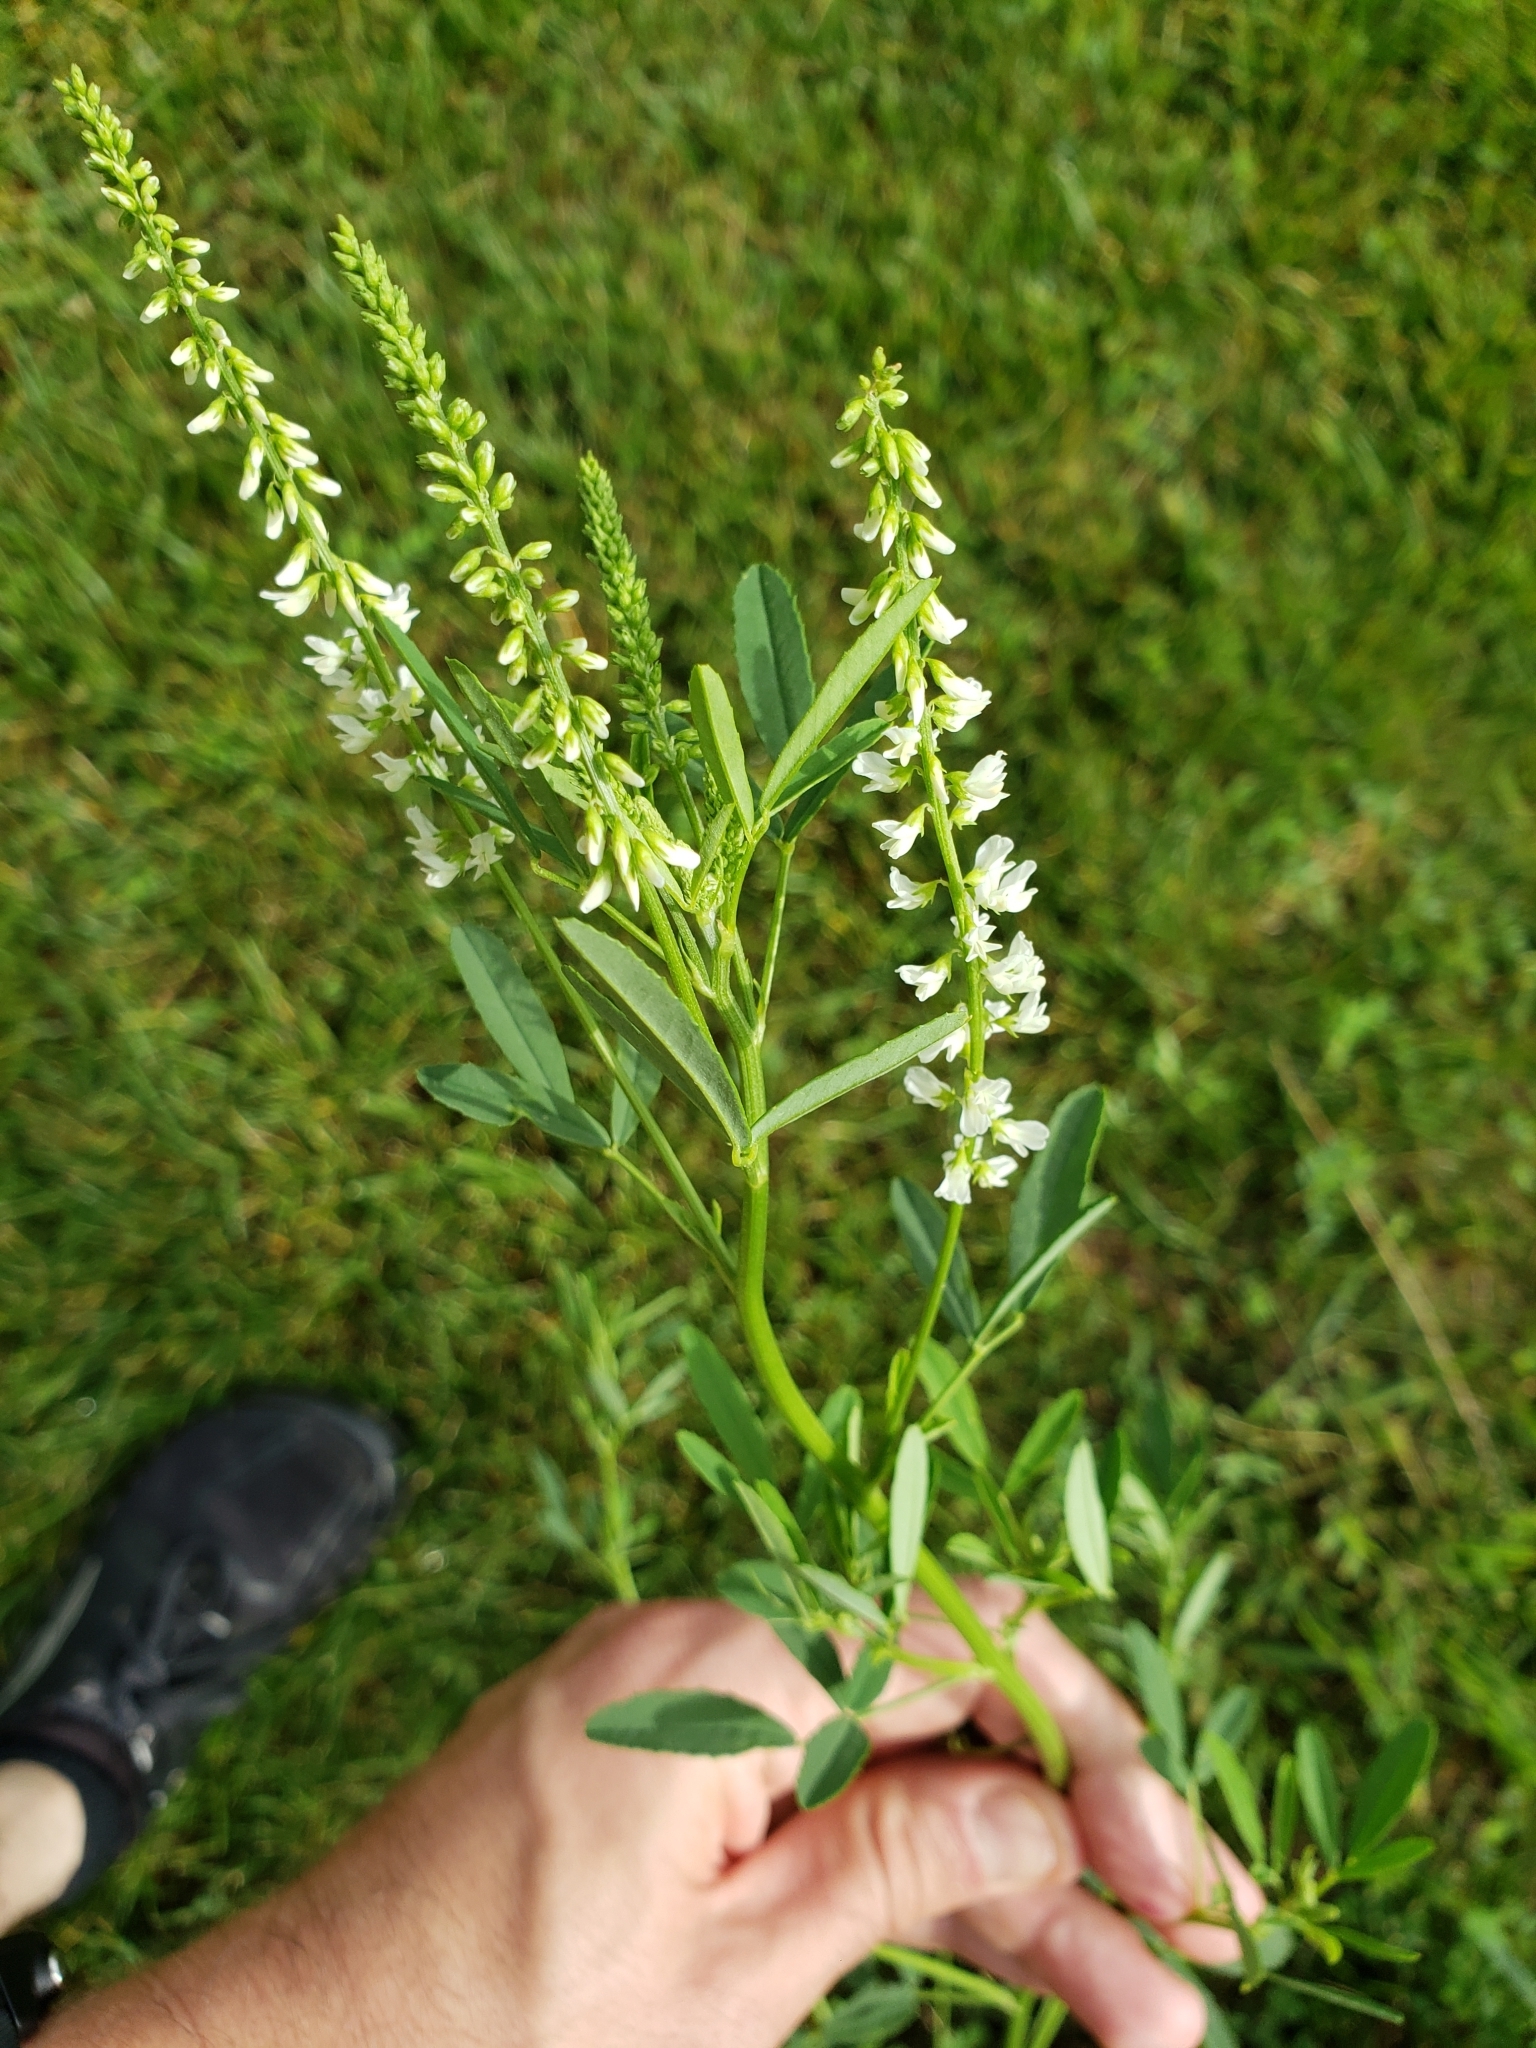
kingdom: Plantae
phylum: Tracheophyta
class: Magnoliopsida
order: Fabales
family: Fabaceae
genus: Melilotus
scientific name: Melilotus albus
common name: White melilot
